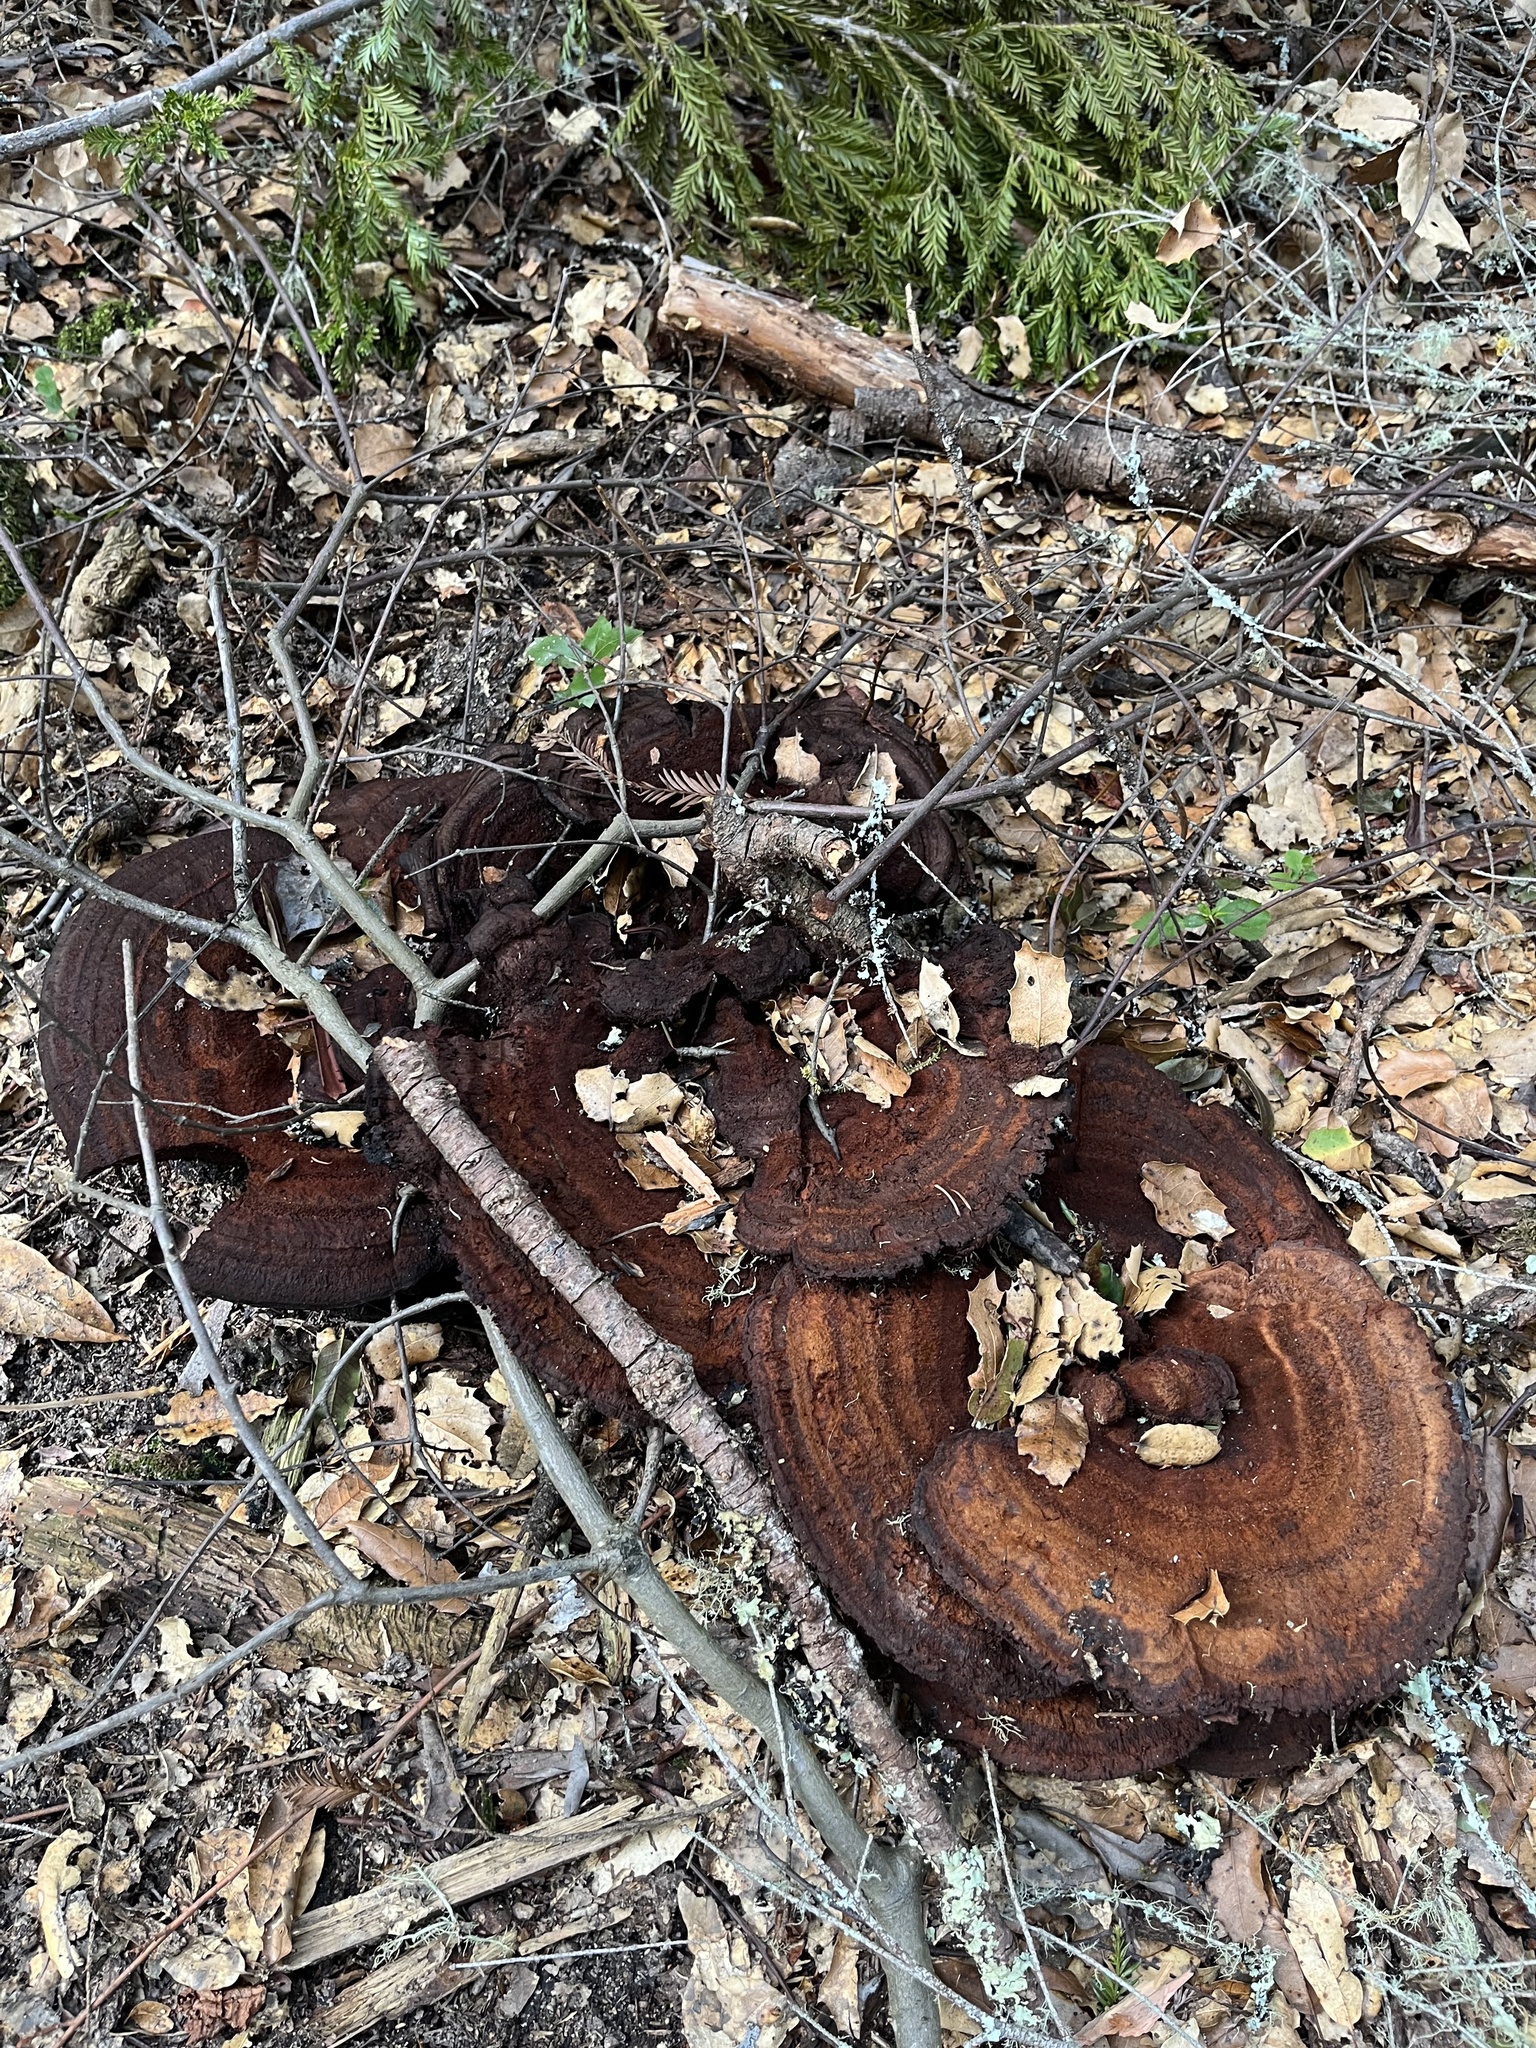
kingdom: Fungi
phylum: Basidiomycota
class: Agaricomycetes
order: Polyporales
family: Laetiporaceae
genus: Phaeolus
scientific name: Phaeolus schweinitzii
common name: Dyer's mazegill
